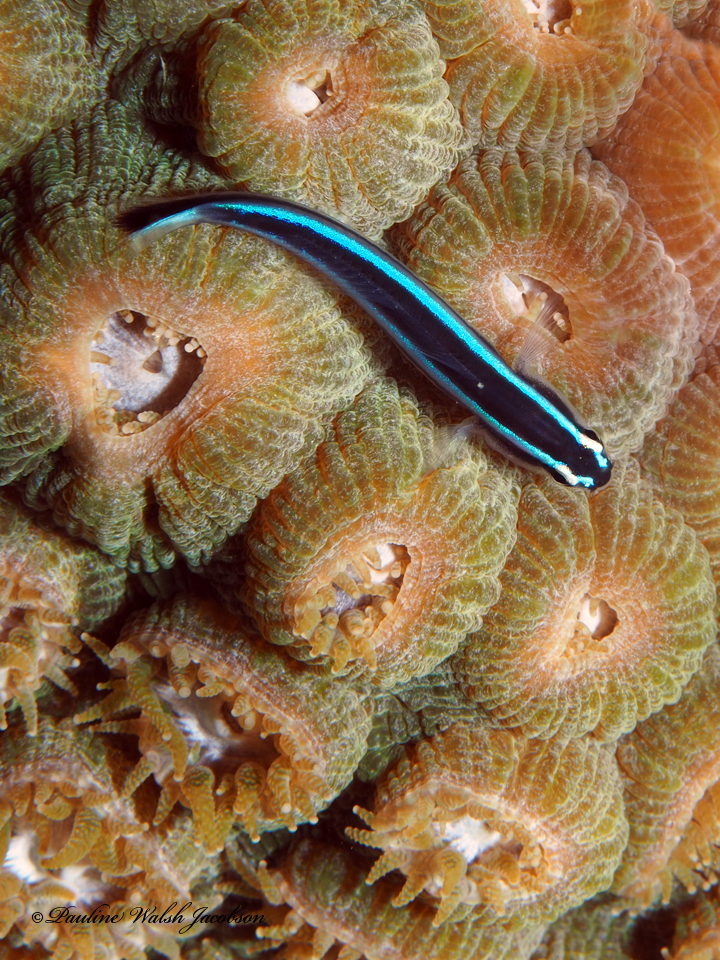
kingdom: Animalia
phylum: Chordata
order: Perciformes
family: Gobiidae
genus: Elacatinus
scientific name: Elacatinus oceanops
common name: Northern neon goby
